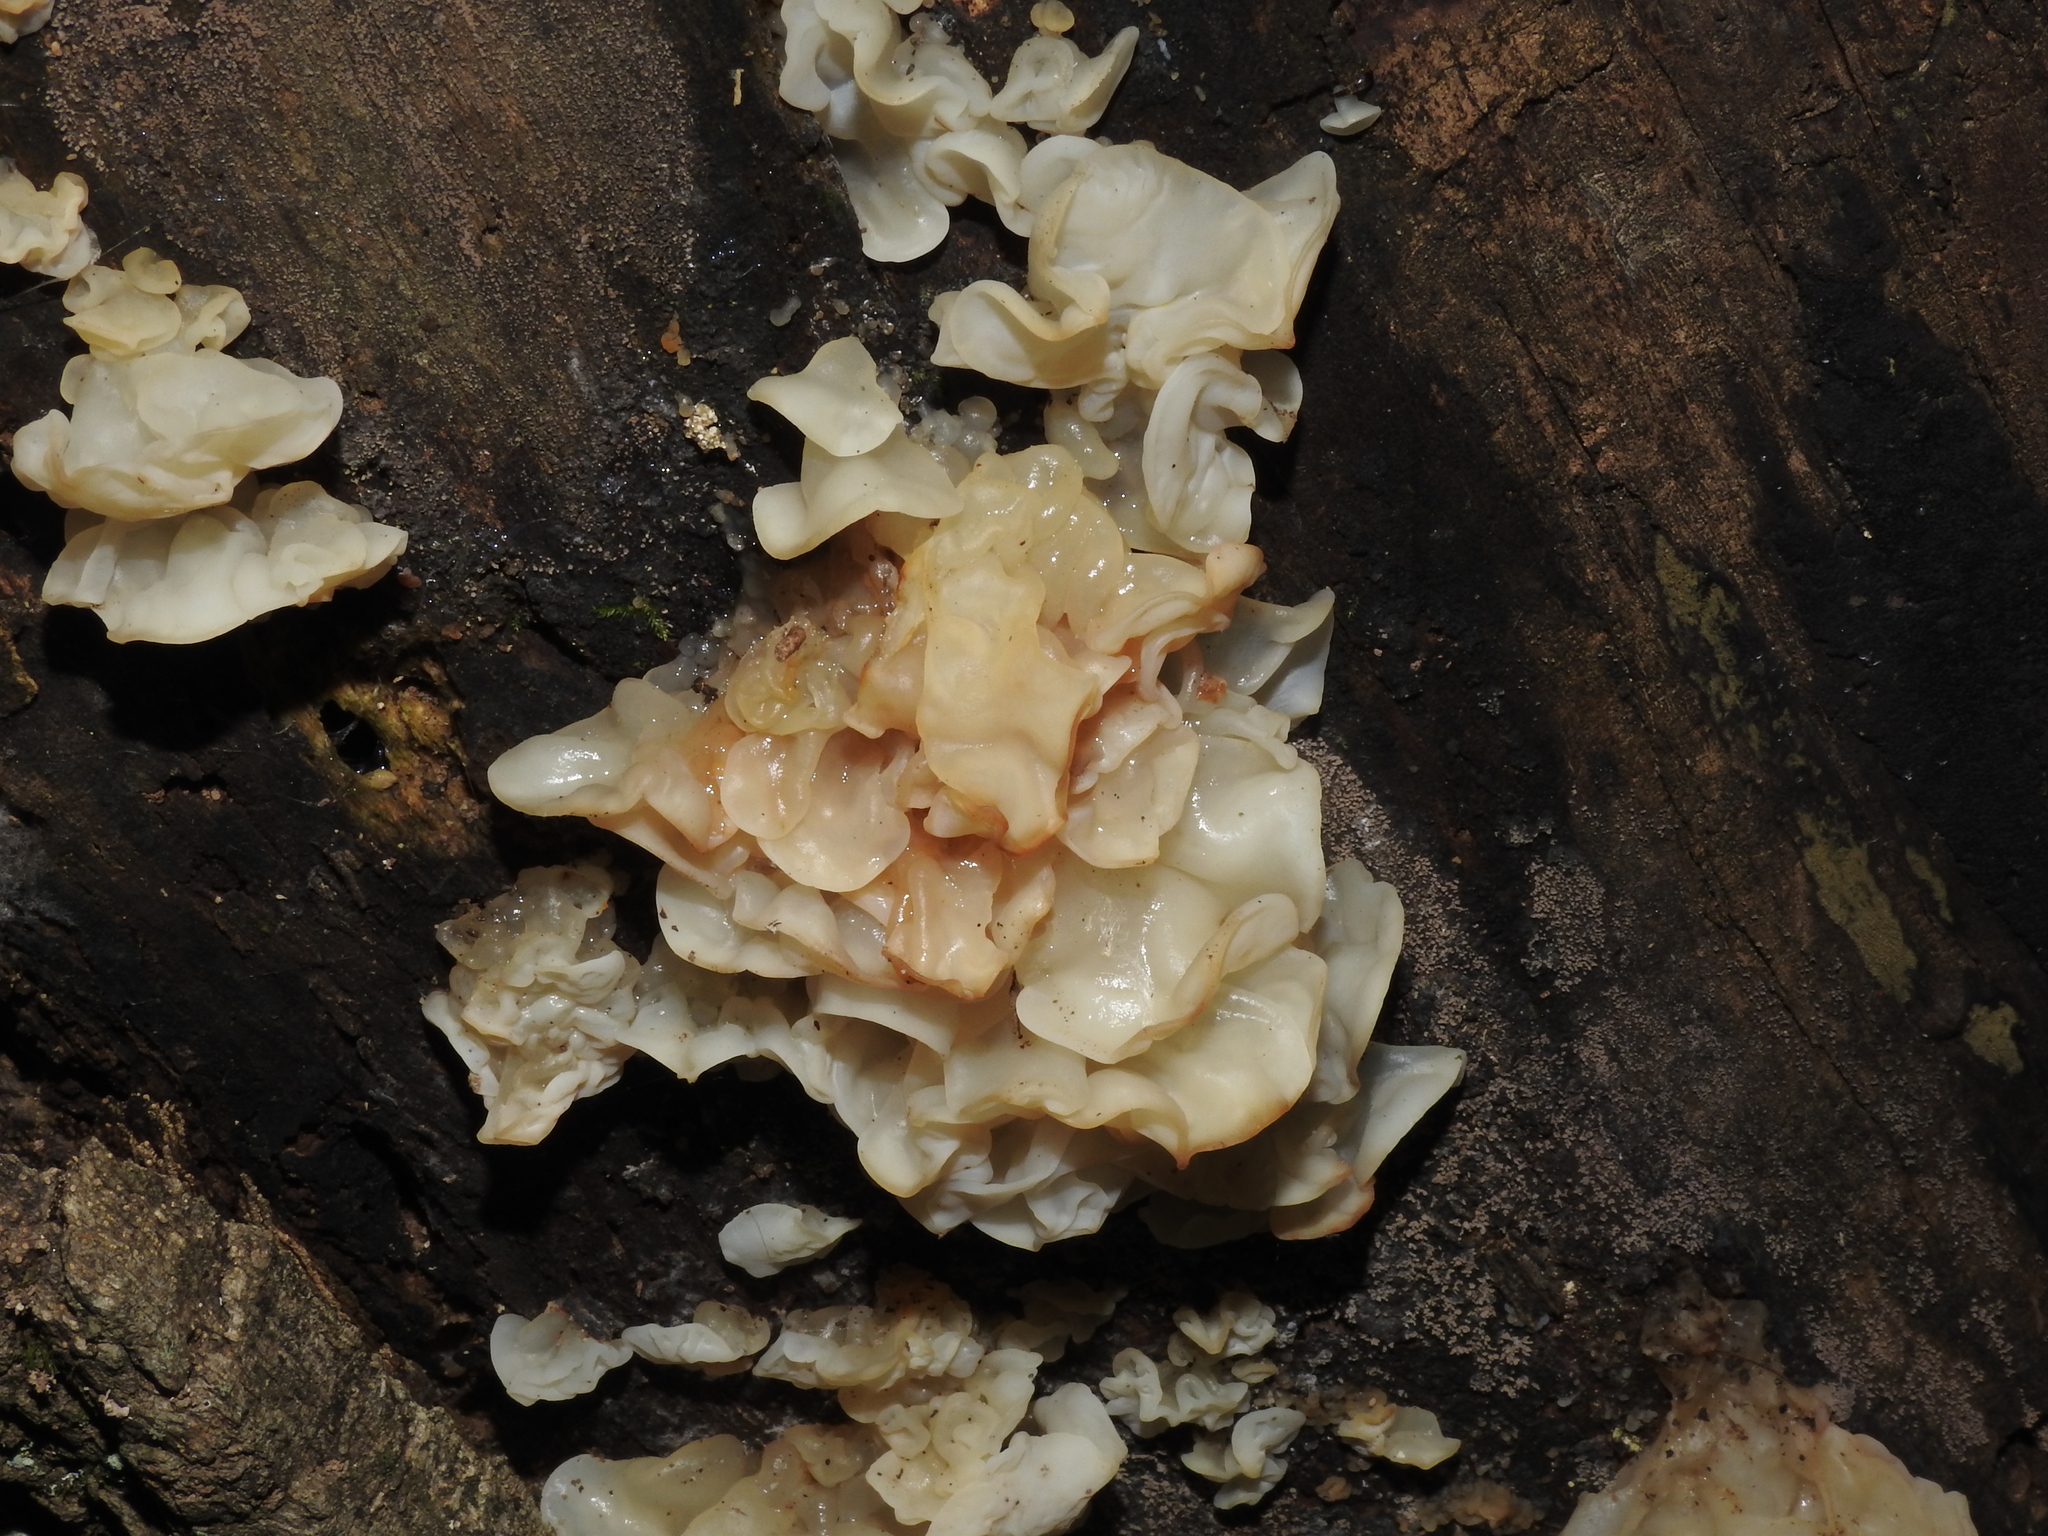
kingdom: Fungi
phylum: Basidiomycota
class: Agaricomycetes
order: Auriculariales
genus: Ductifera
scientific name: Ductifera pululahuana
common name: White jelly fungus
